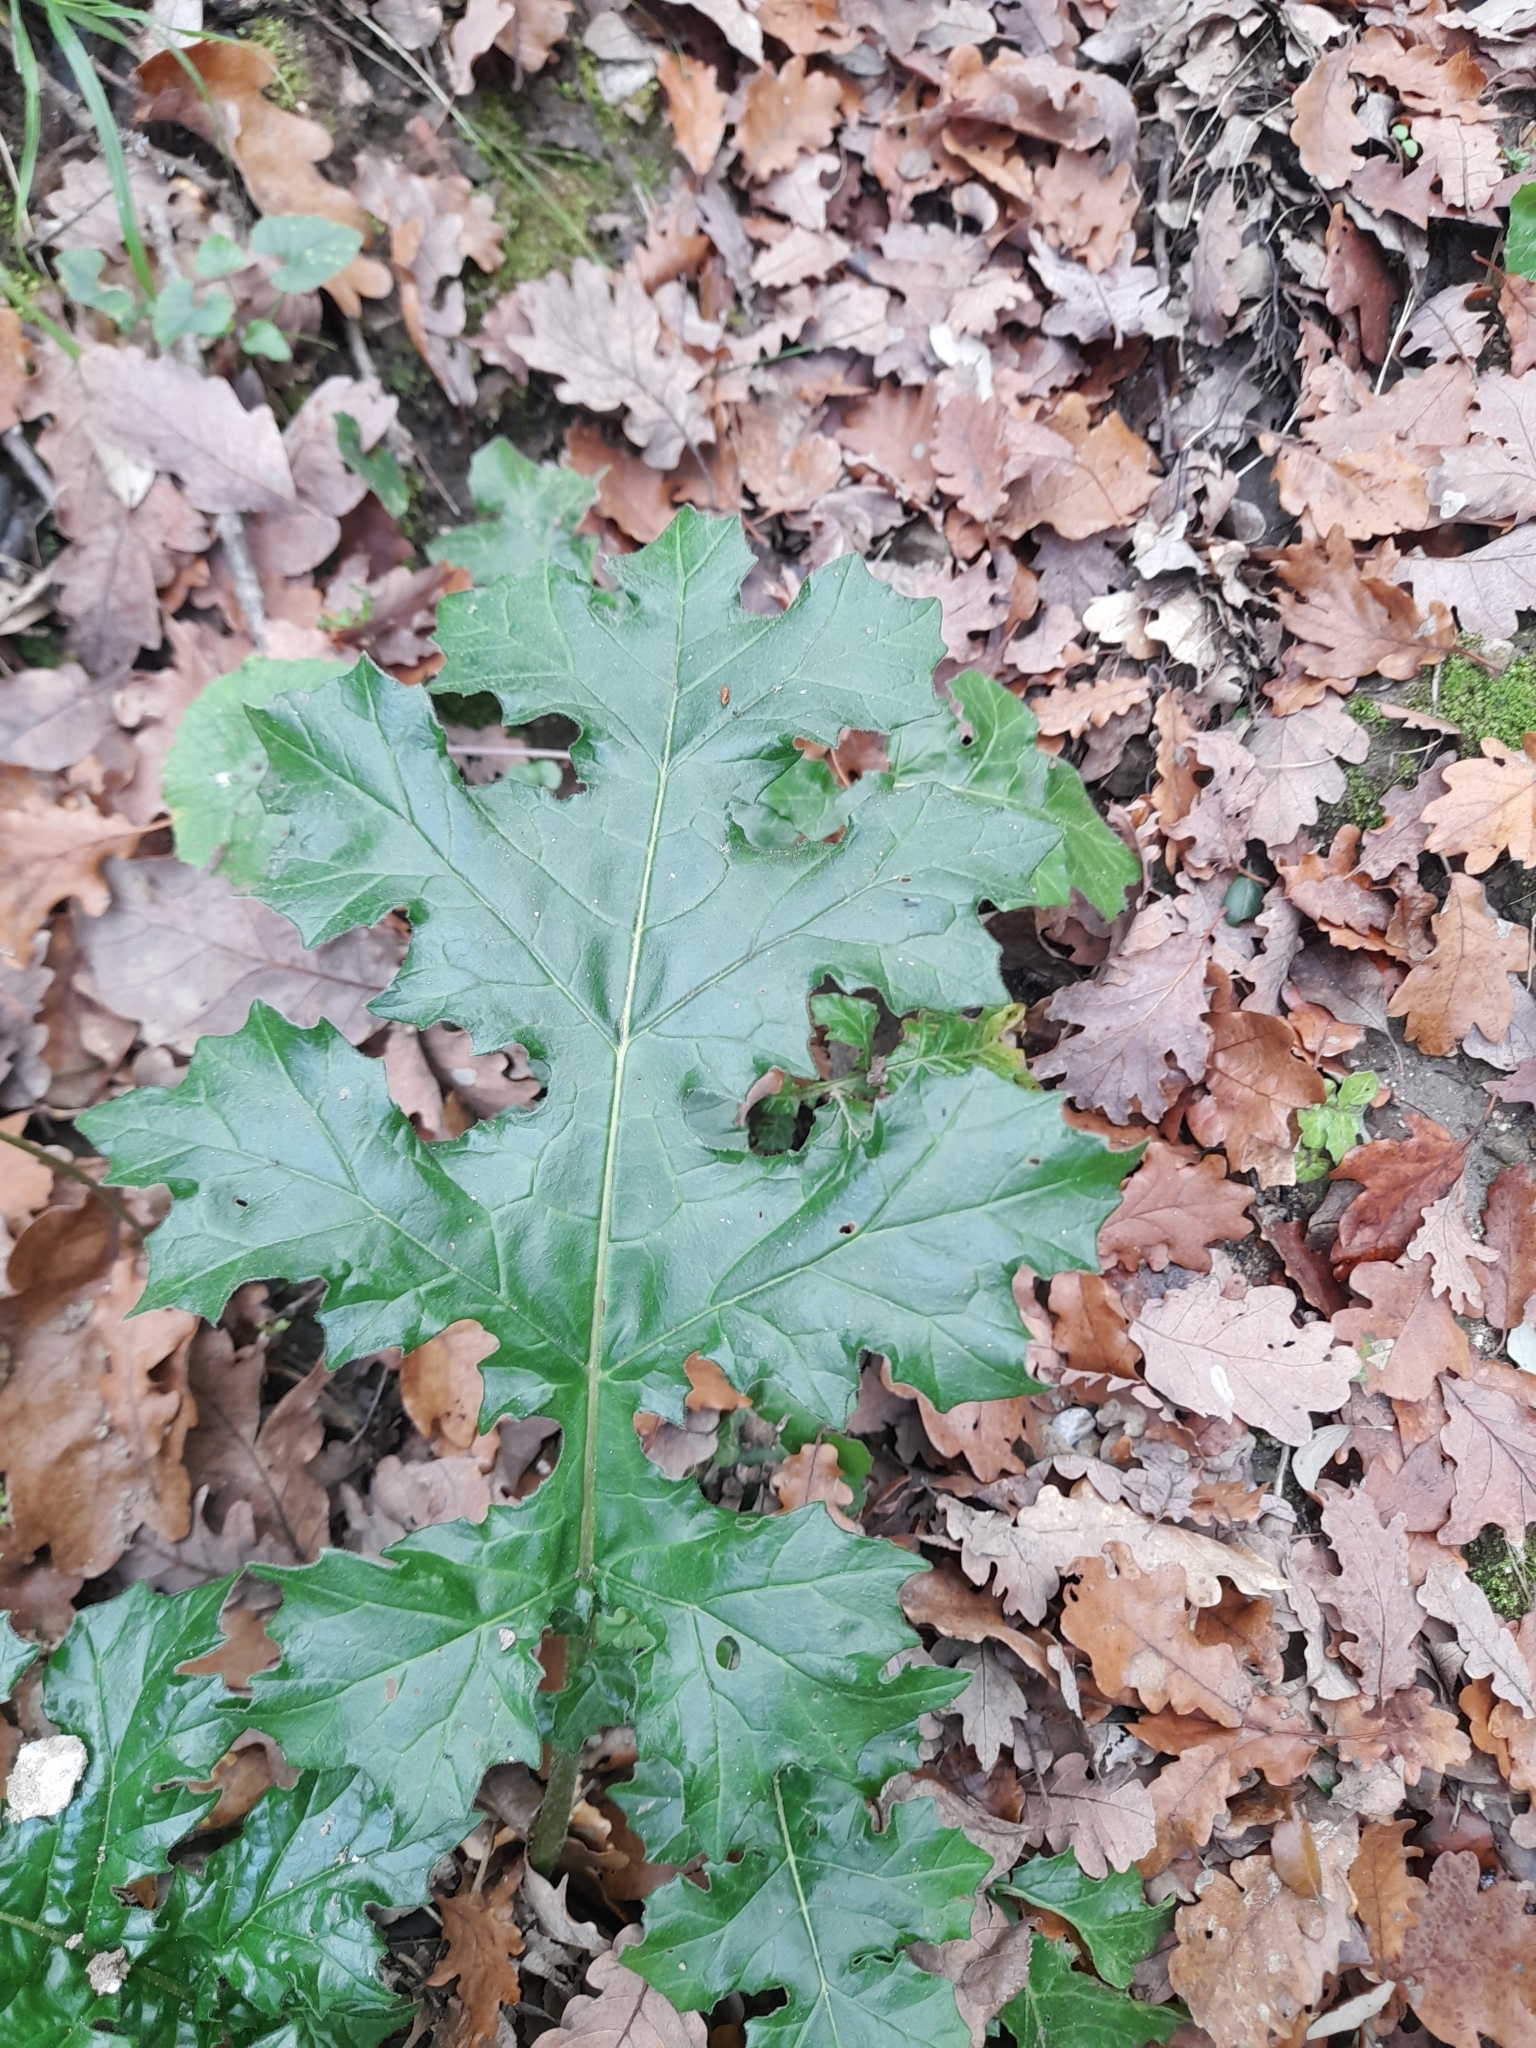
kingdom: Plantae
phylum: Tracheophyta
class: Magnoliopsida
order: Lamiales
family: Acanthaceae
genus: Acanthus
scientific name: Acanthus mollis
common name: Bear's-breech
